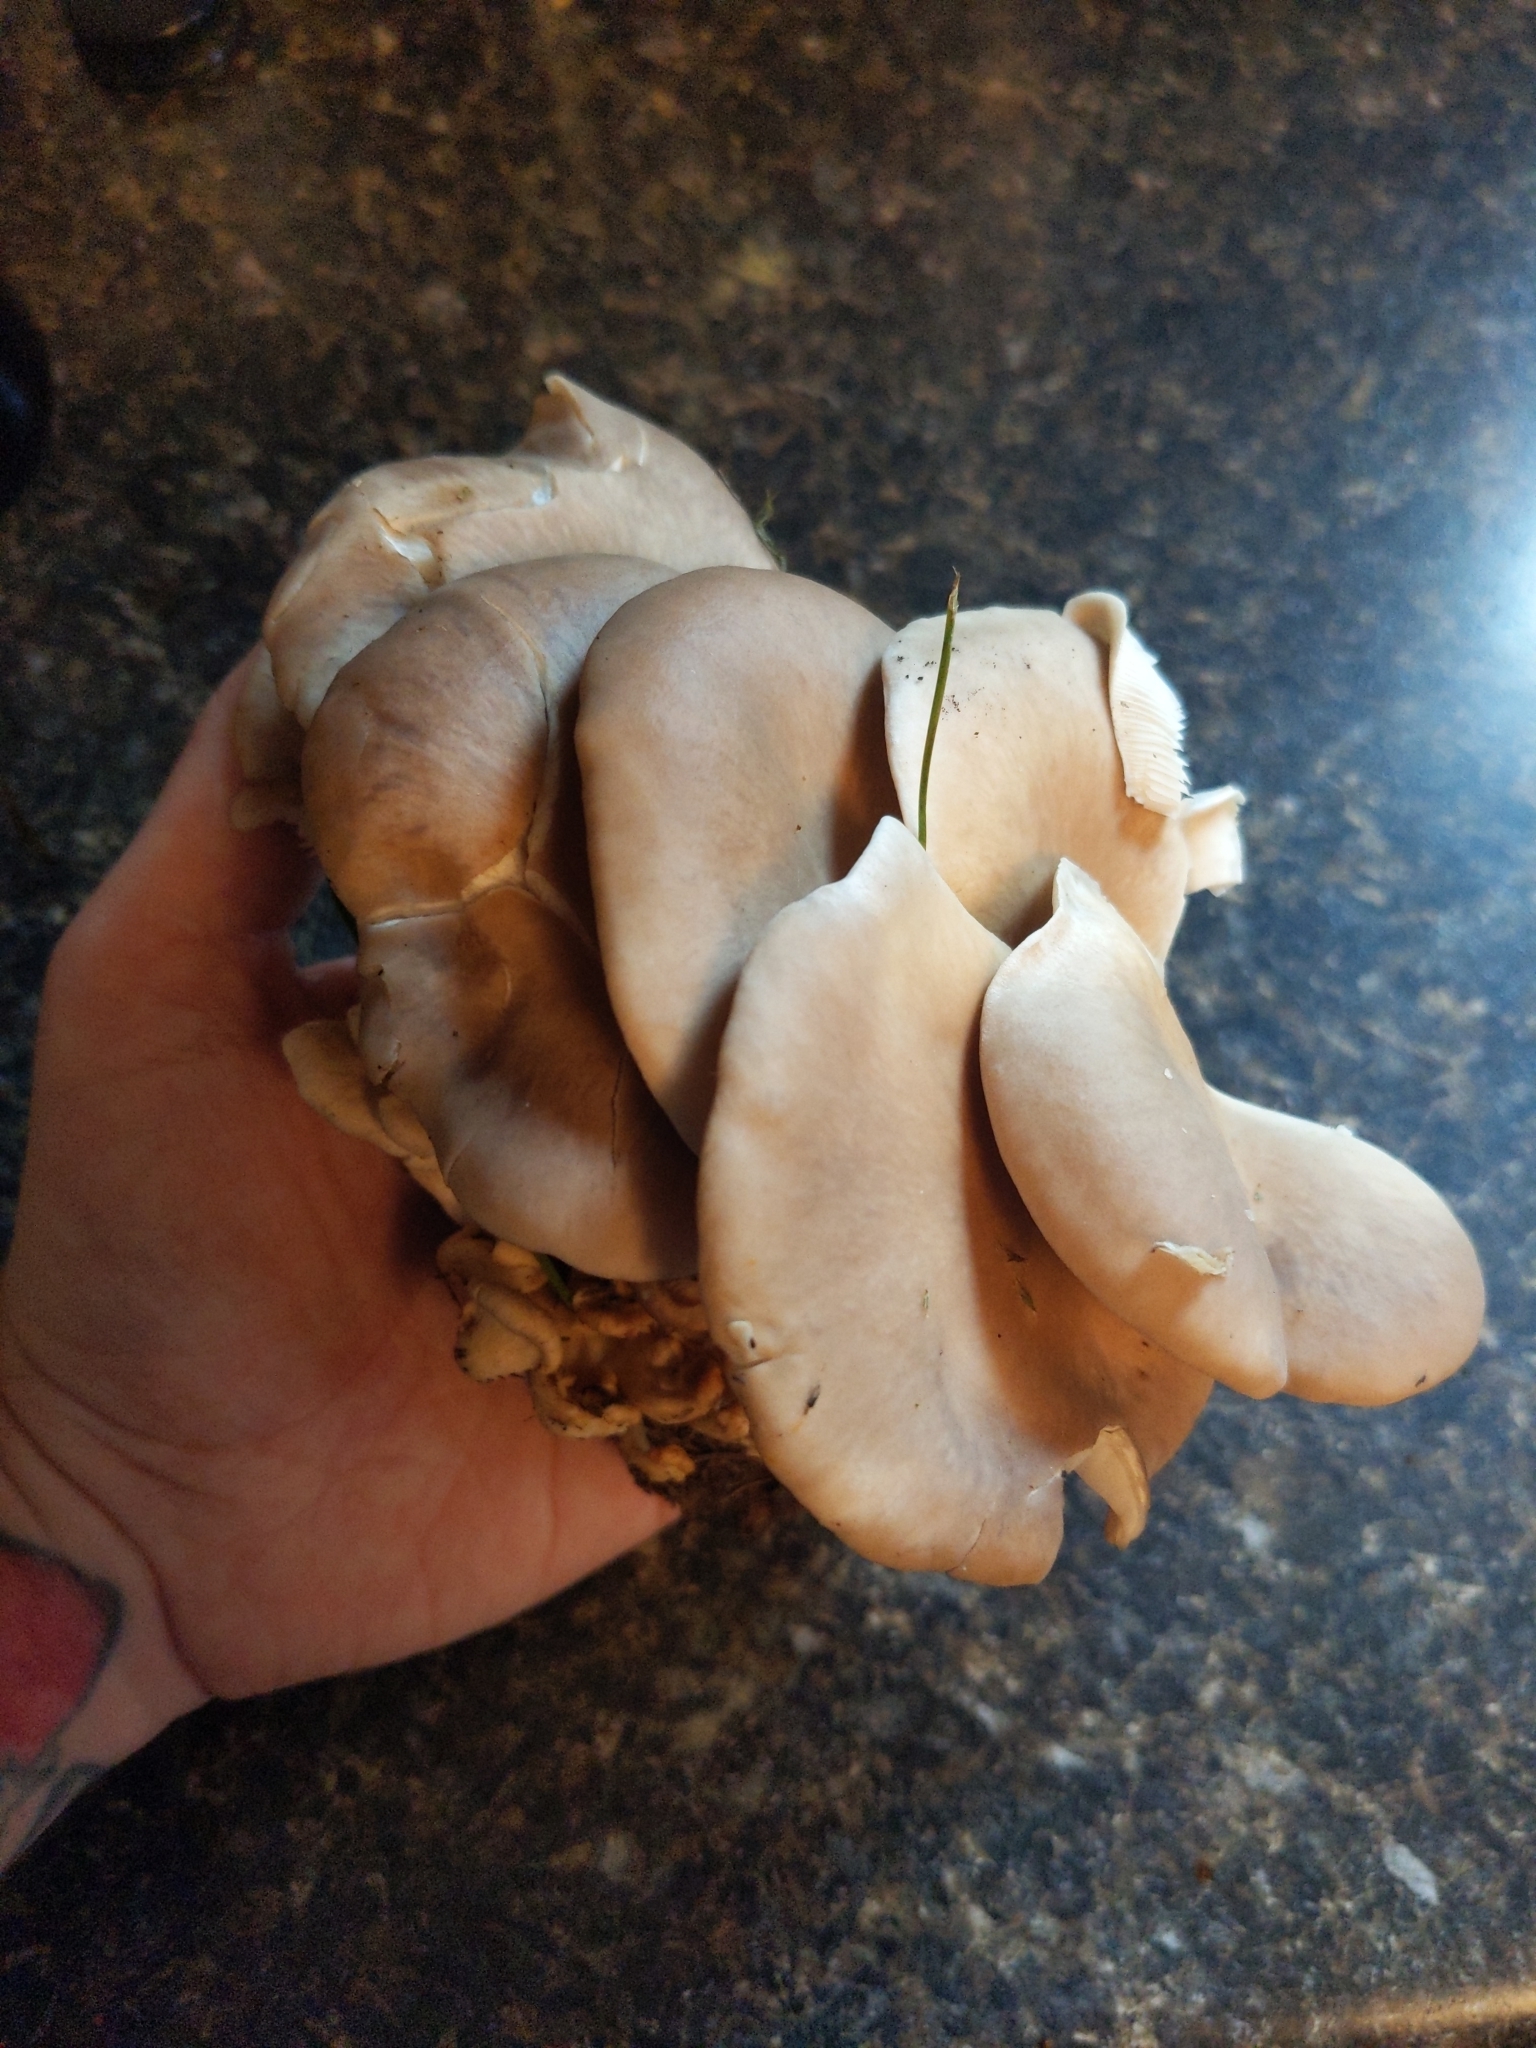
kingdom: Fungi
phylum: Basidiomycota
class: Agaricomycetes
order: Agaricales
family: Pleurotaceae
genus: Pleurotus
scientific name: Pleurotus ostreatus
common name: Oyster mushroom
